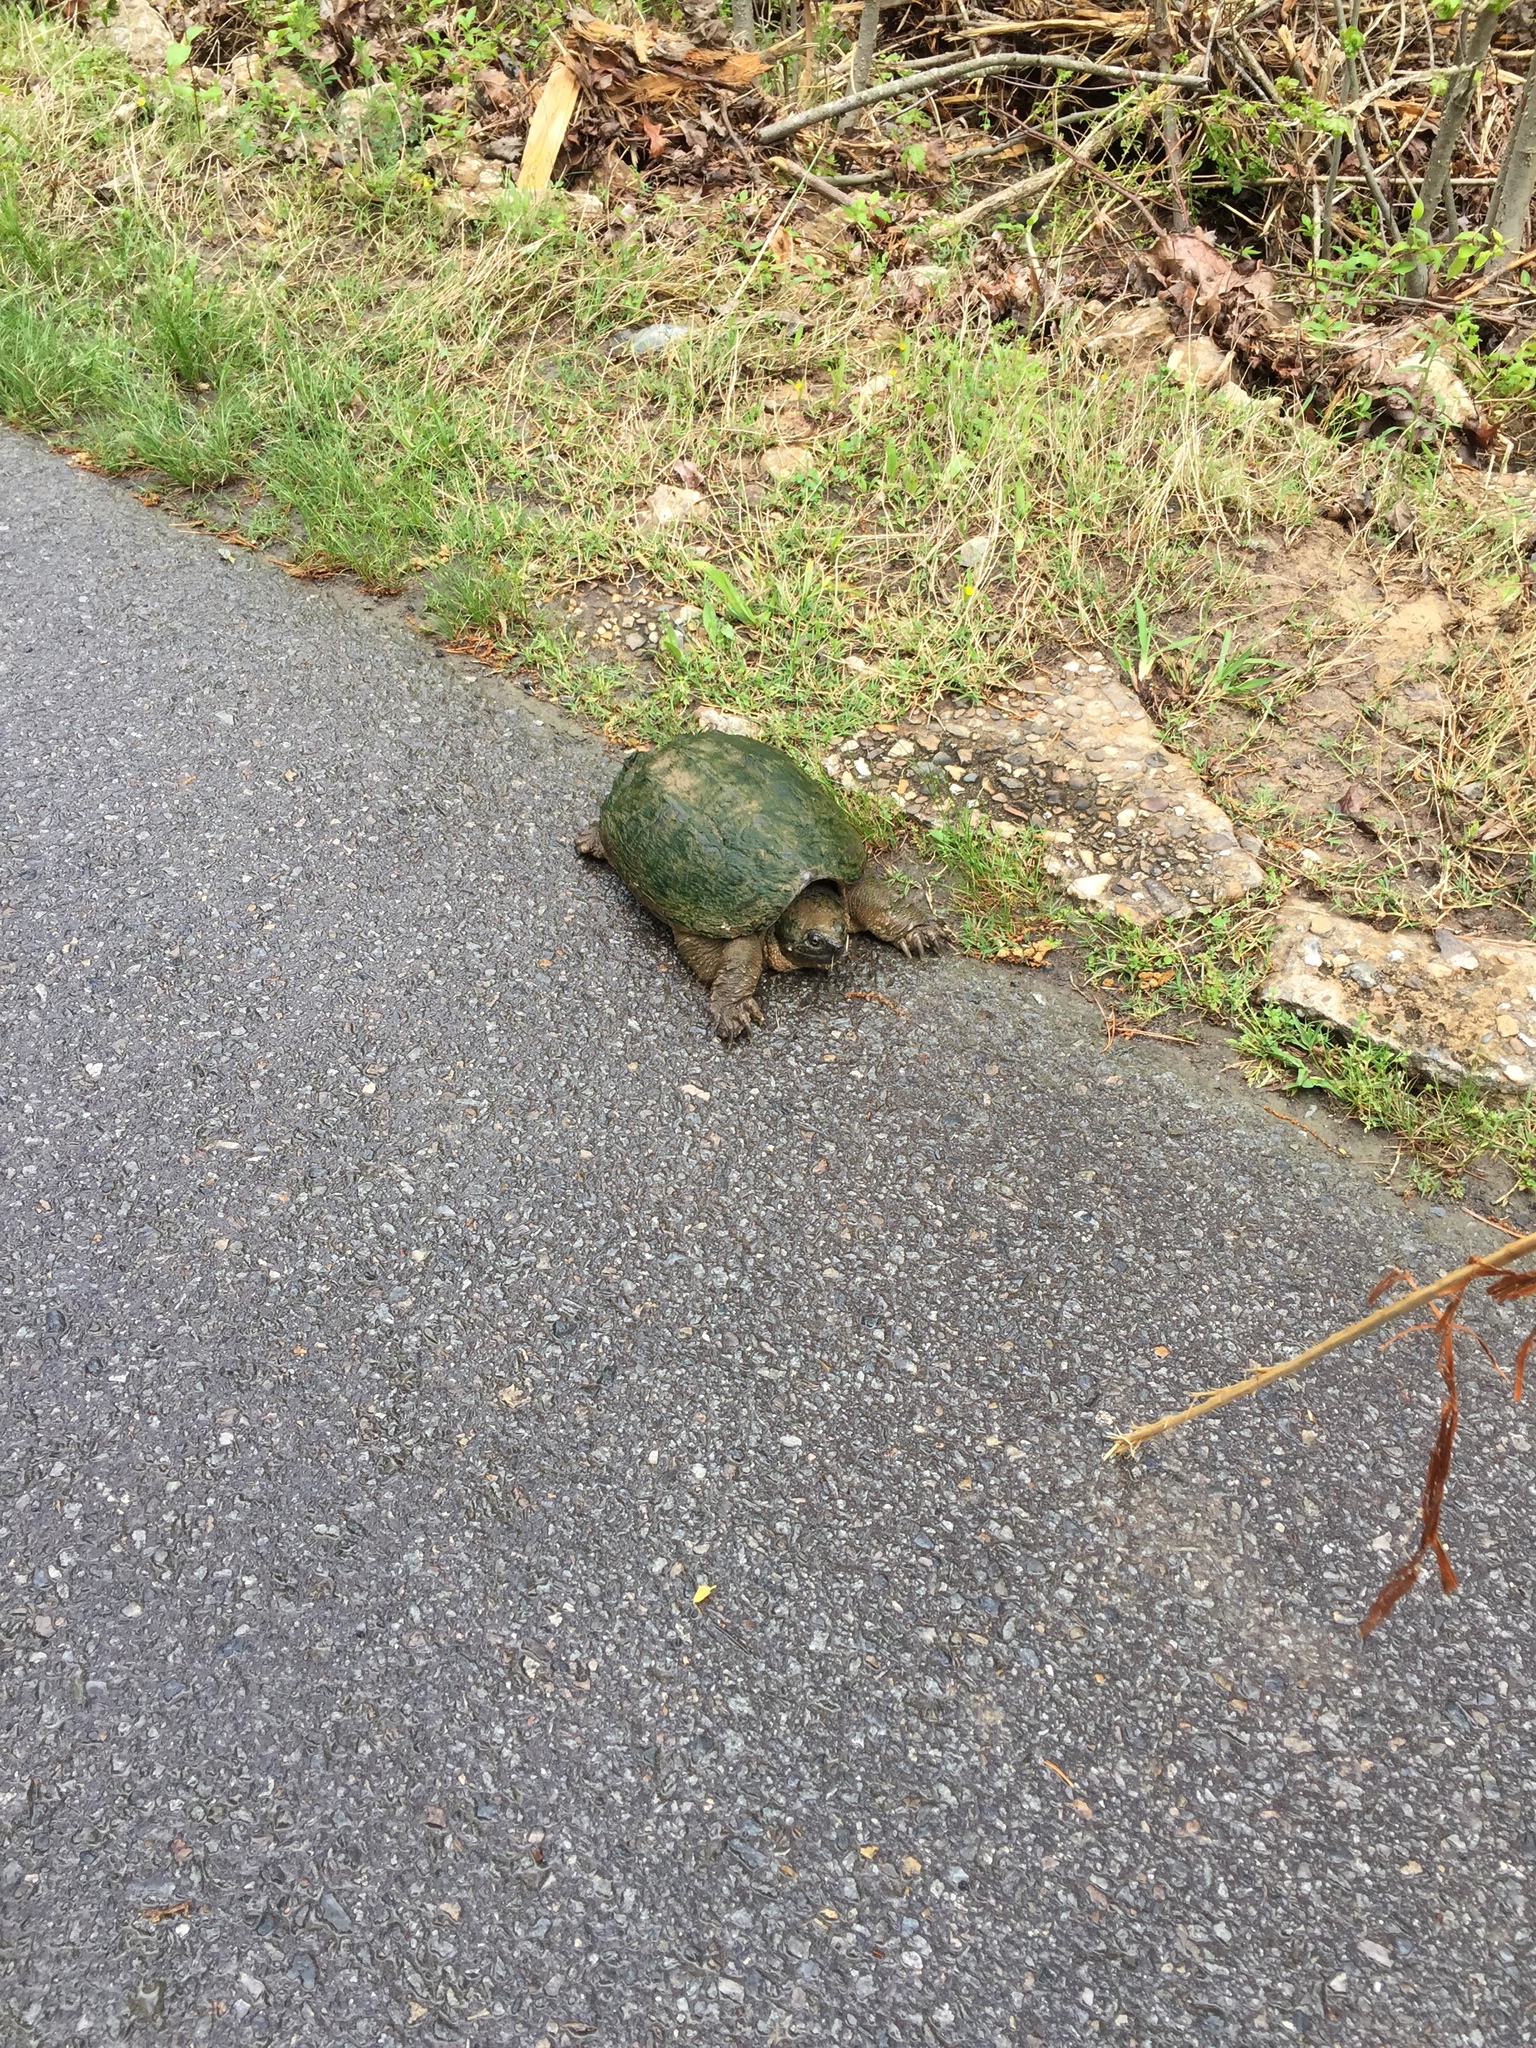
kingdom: Animalia
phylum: Chordata
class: Testudines
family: Chelydridae
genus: Chelydra
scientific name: Chelydra serpentina
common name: Common snapping turtle
